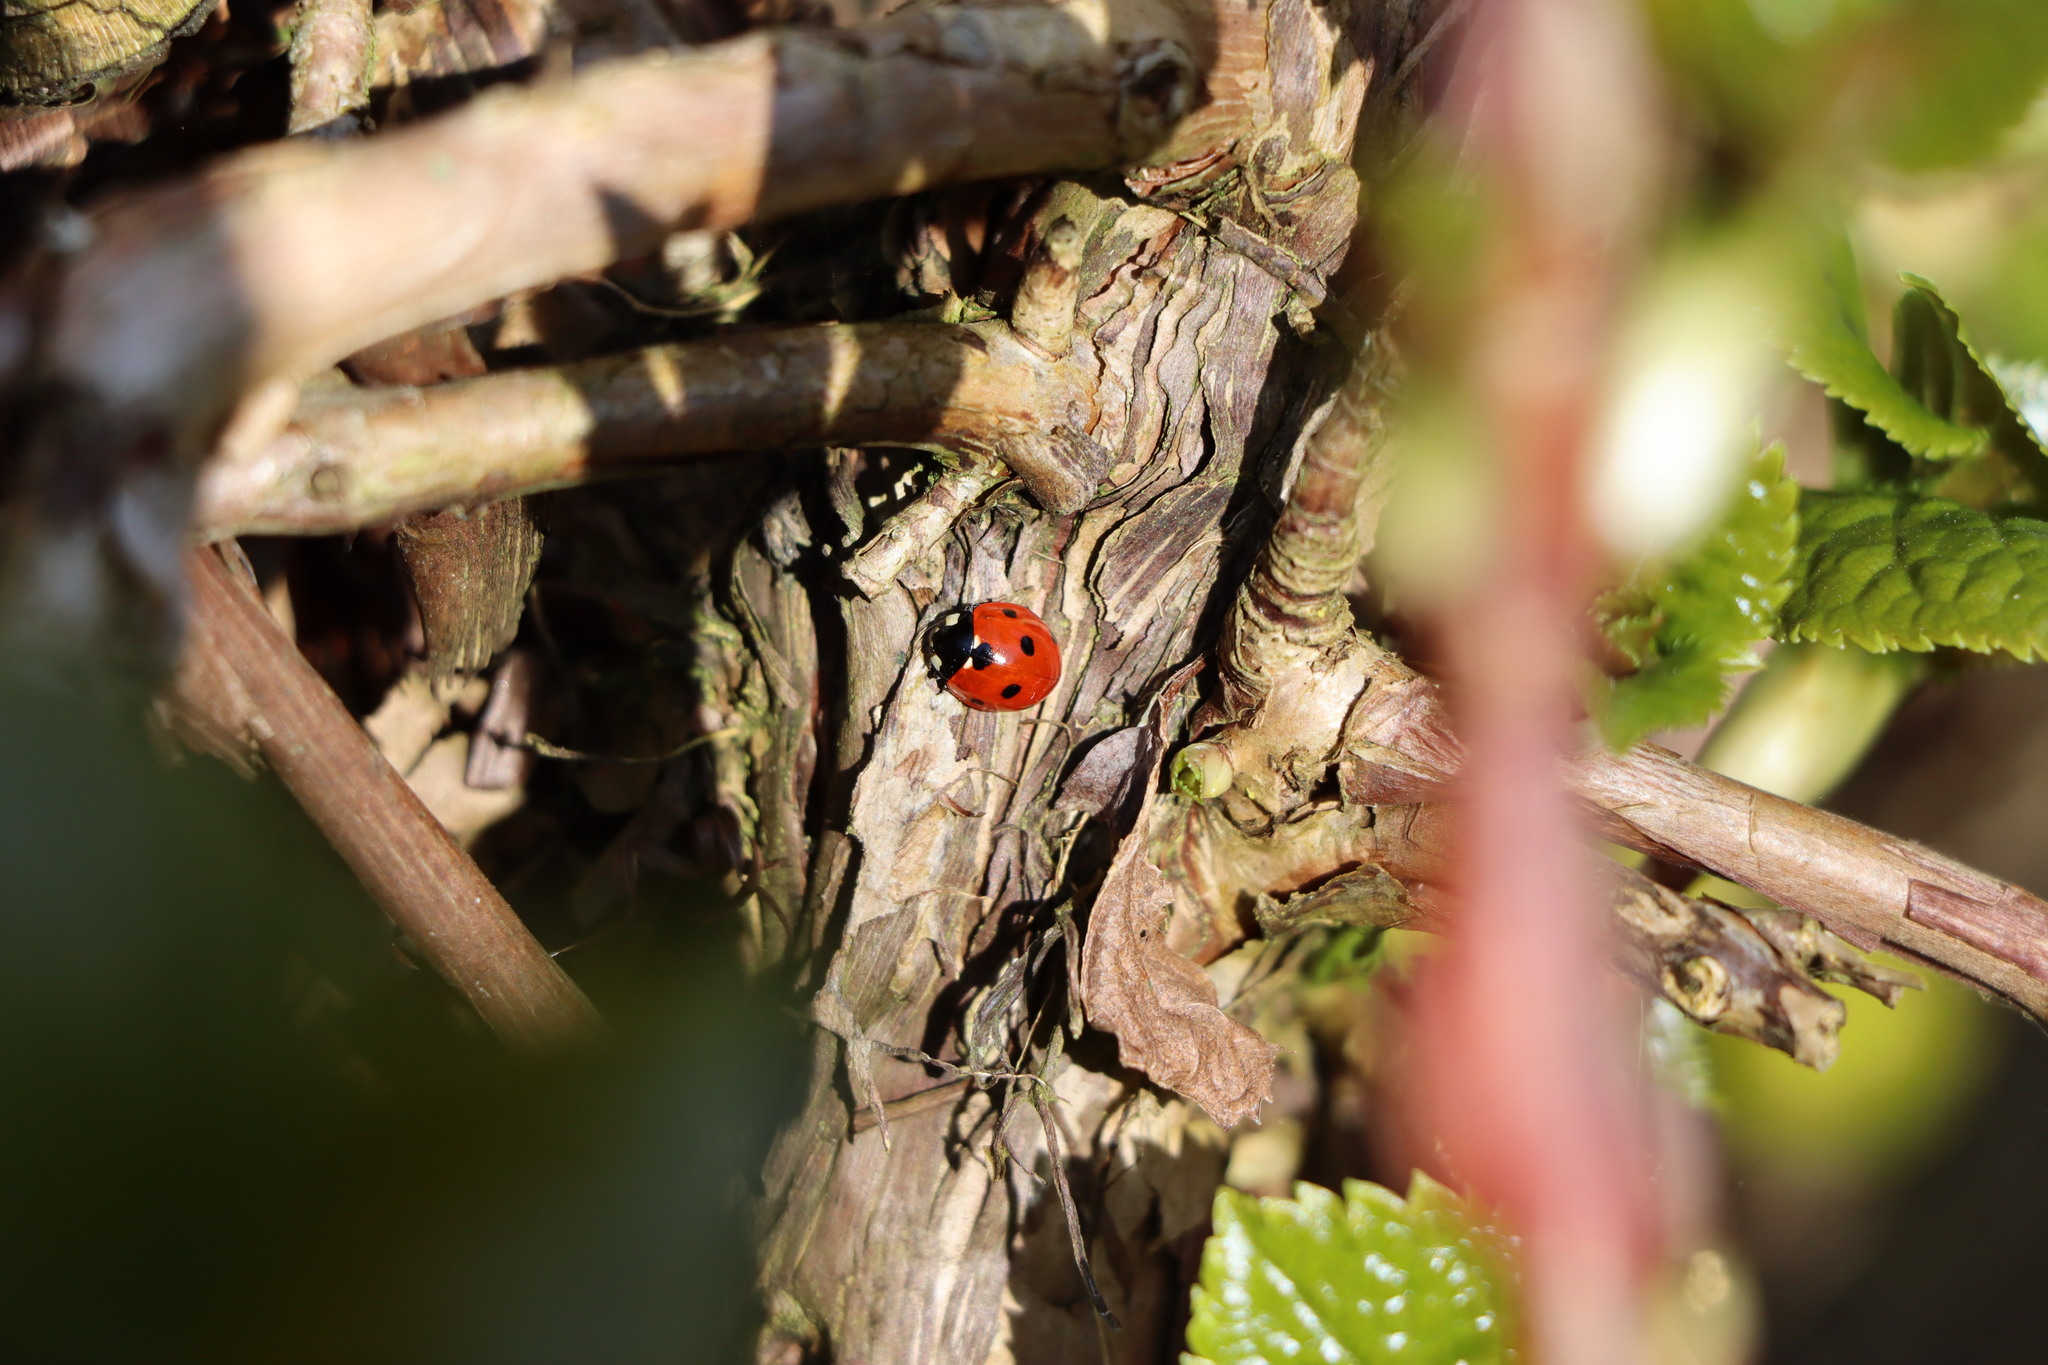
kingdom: Animalia
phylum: Arthropoda
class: Insecta
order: Coleoptera
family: Coccinellidae
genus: Coccinella
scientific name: Coccinella septempunctata
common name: Sevenspotted lady beetle
